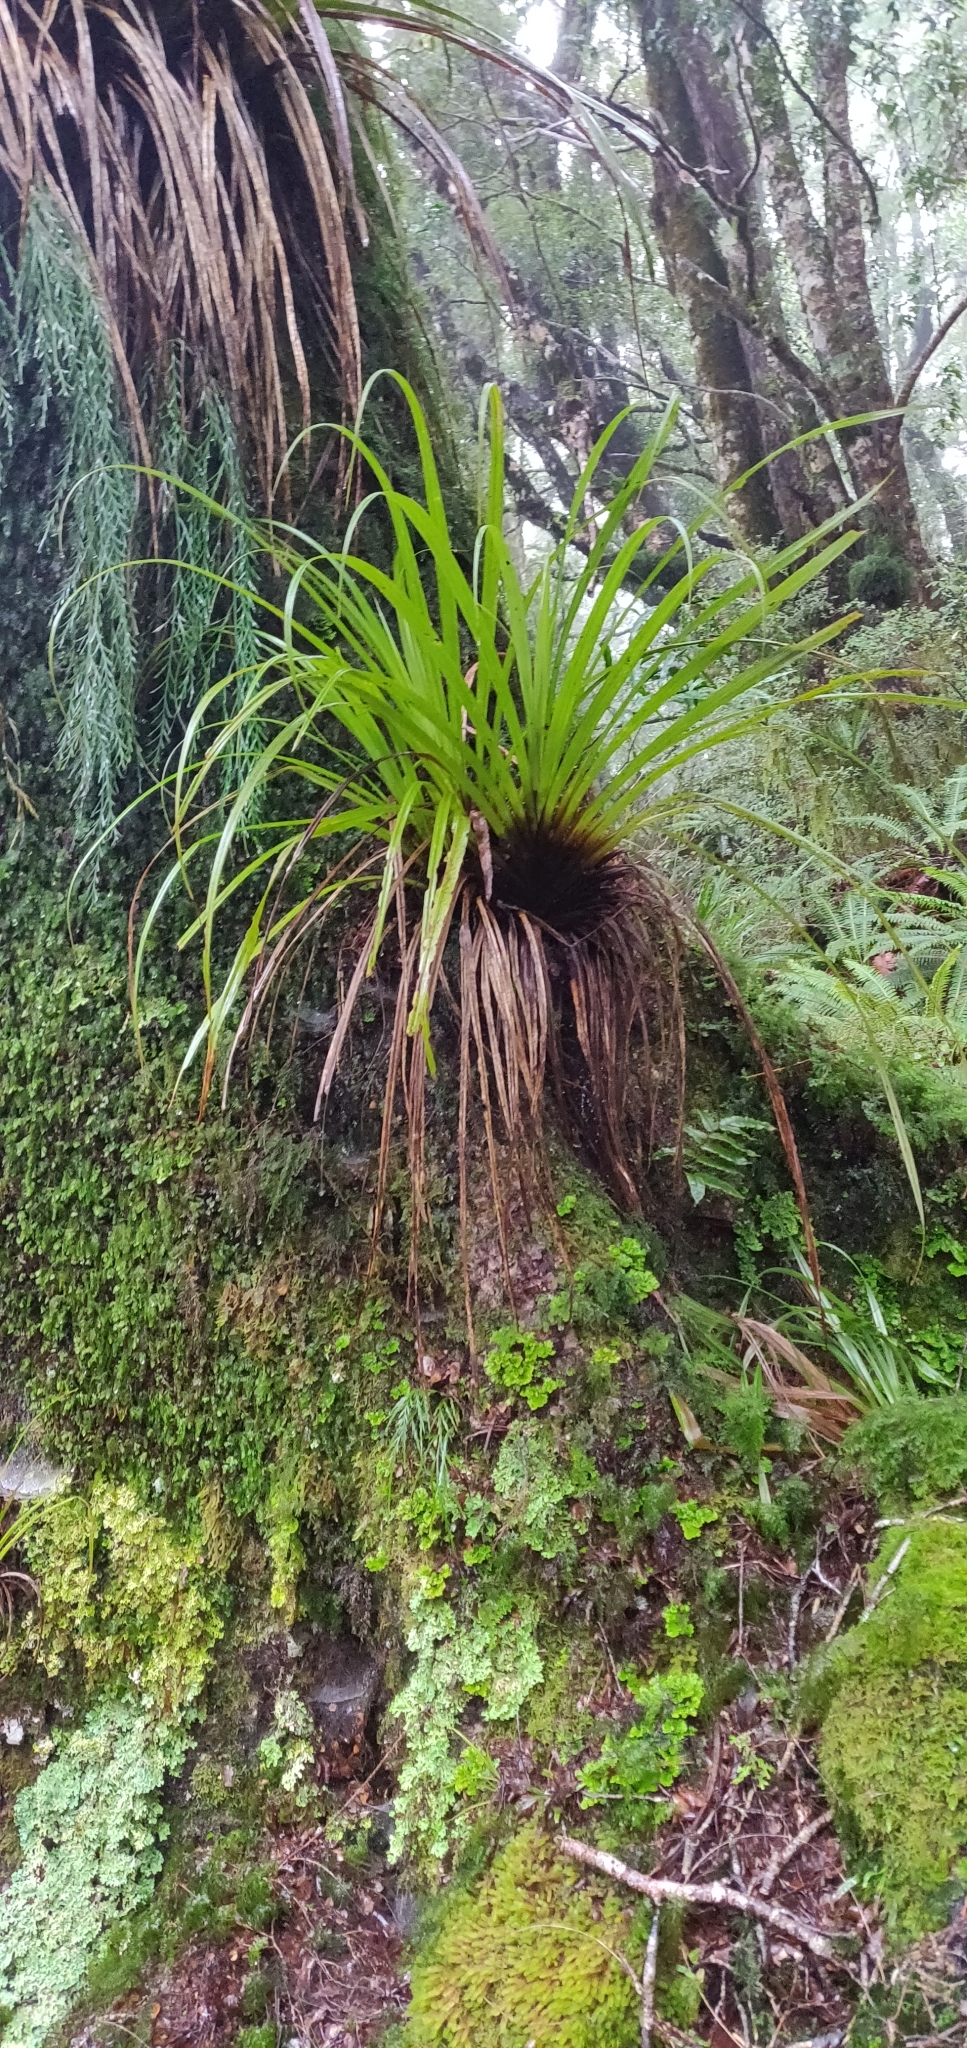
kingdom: Plantae
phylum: Tracheophyta
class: Liliopsida
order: Asparagales
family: Asteliaceae
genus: Astelia
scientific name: Astelia hastata
